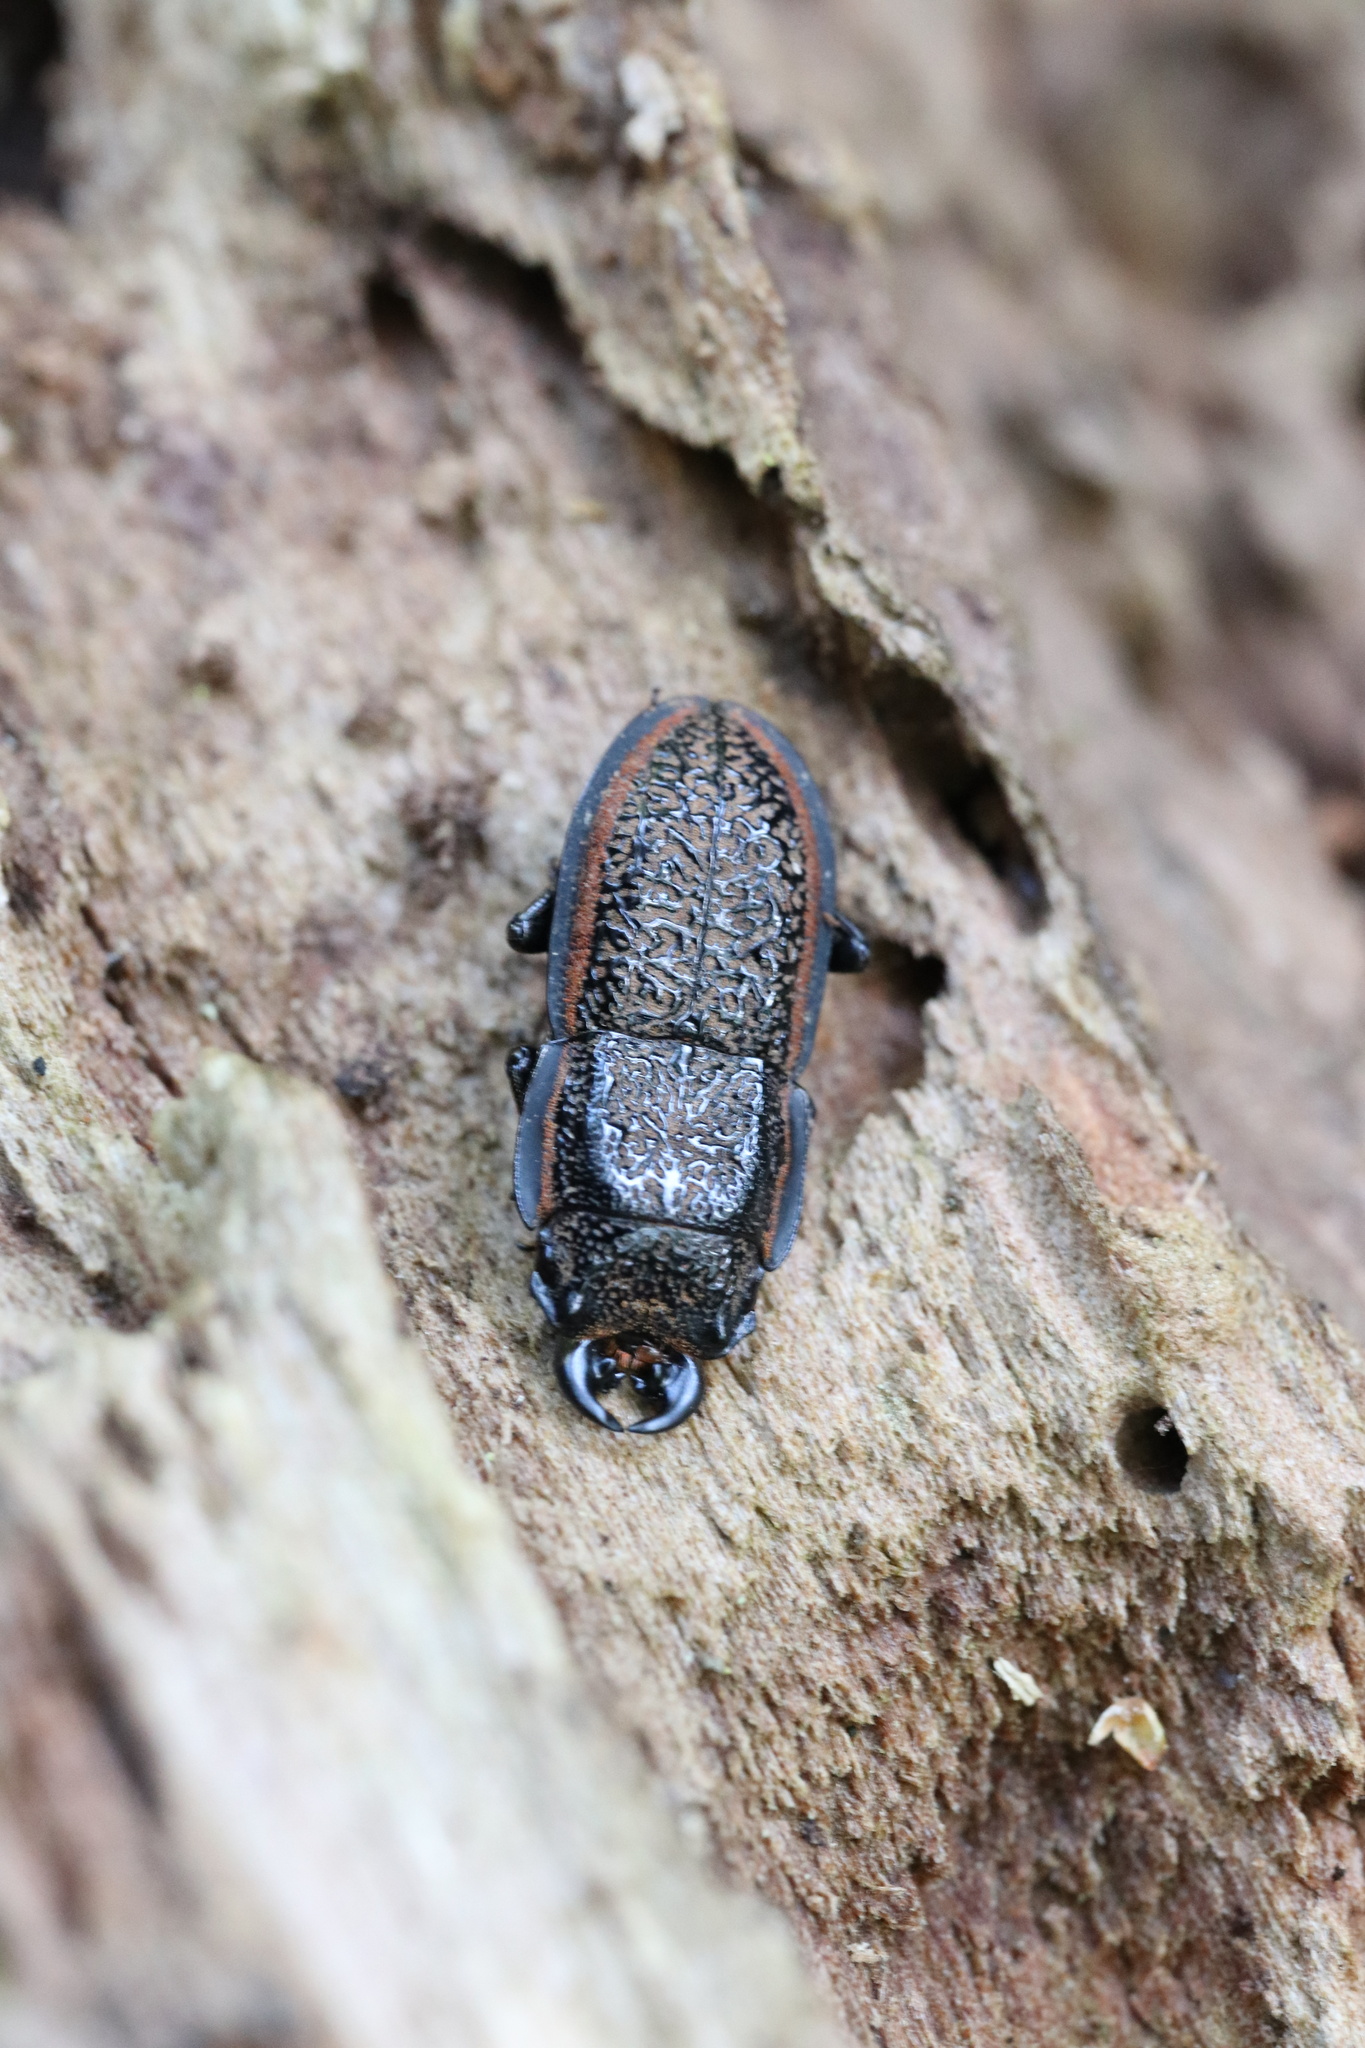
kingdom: Animalia
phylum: Arthropoda
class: Insecta
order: Coleoptera
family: Lucanidae
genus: Erichius
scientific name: Erichius caelatus
